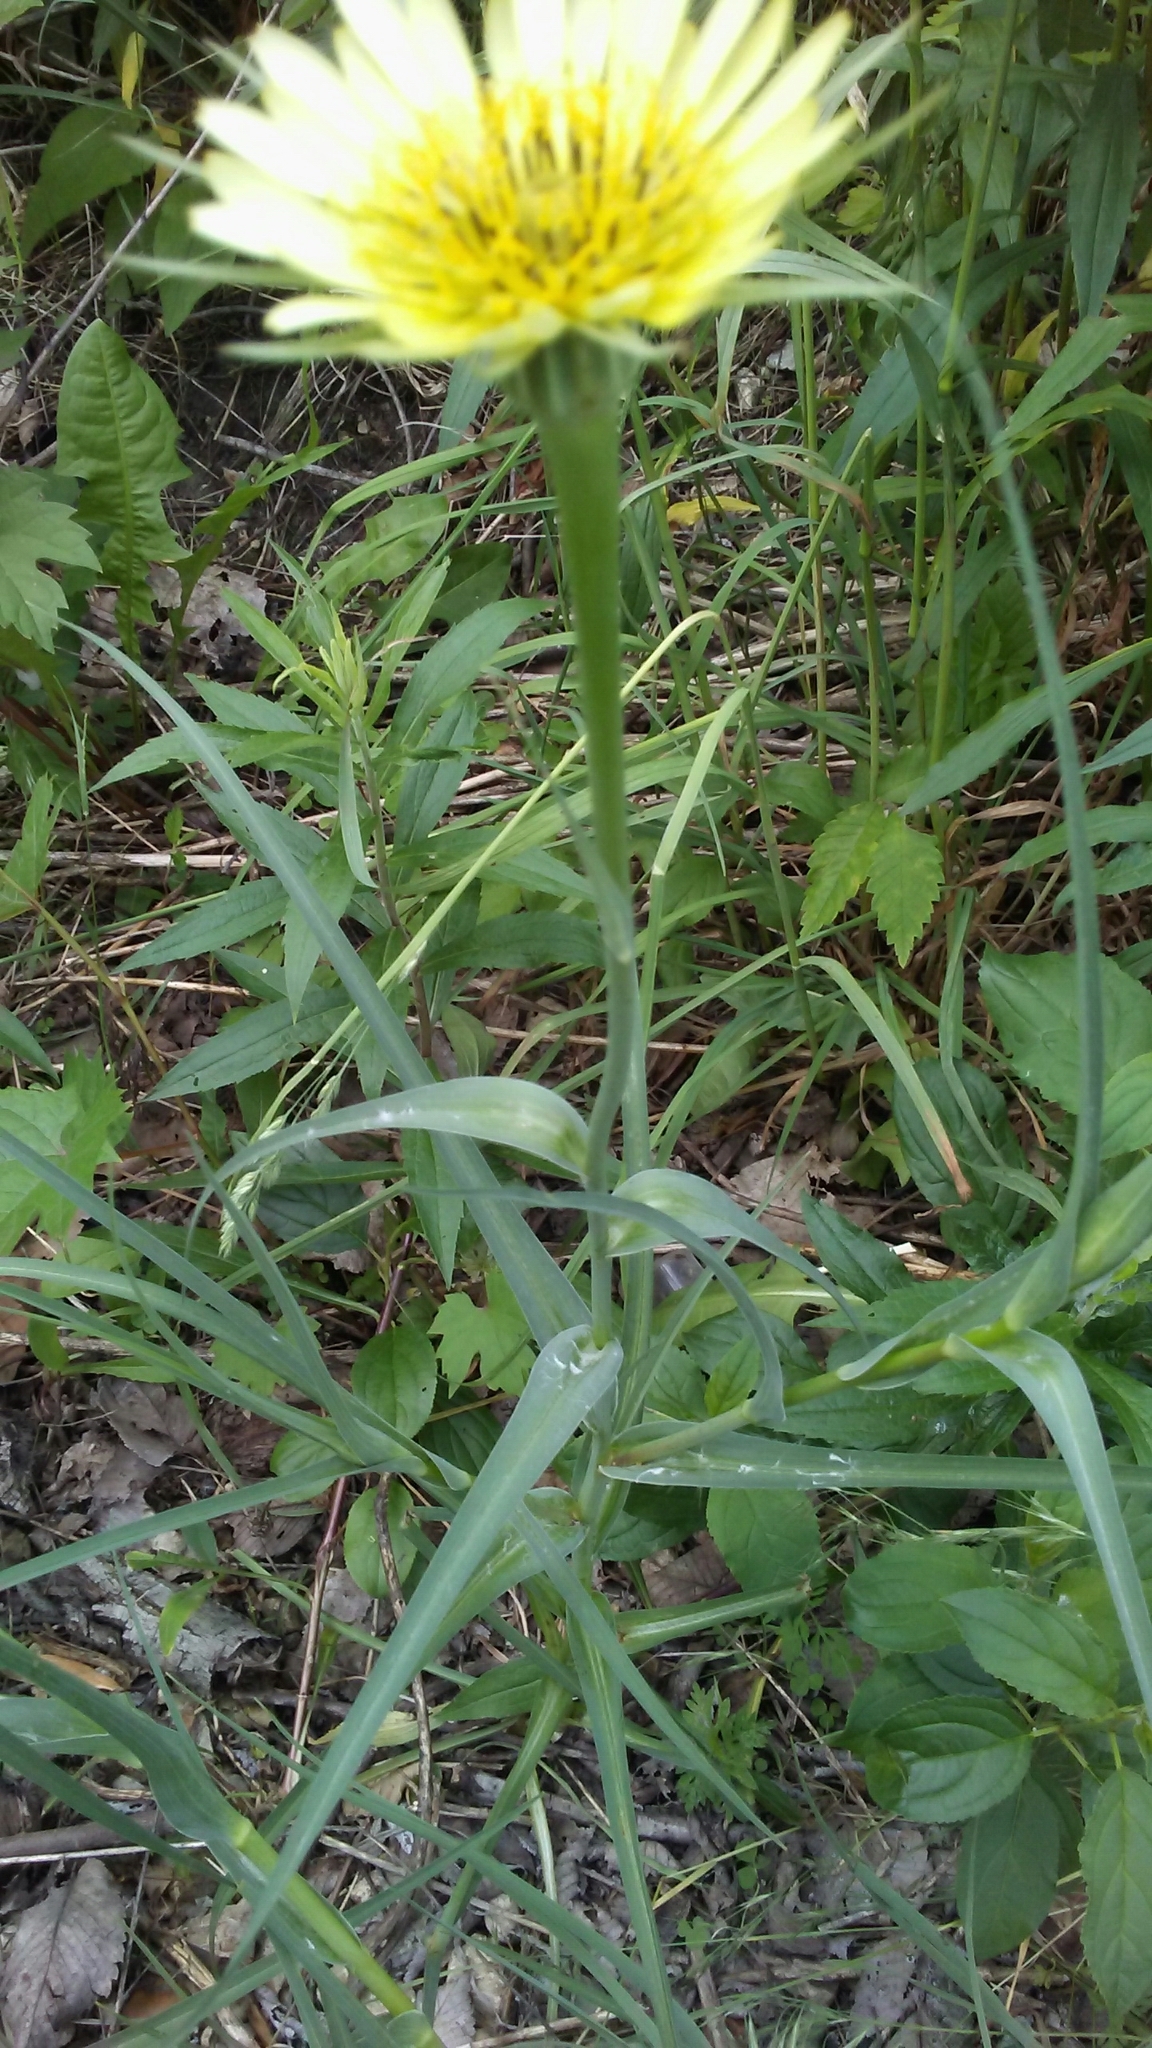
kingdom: Plantae
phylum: Tracheophyta
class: Magnoliopsida
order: Asterales
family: Asteraceae
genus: Tragopogon
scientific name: Tragopogon dubius
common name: Yellow salsify
